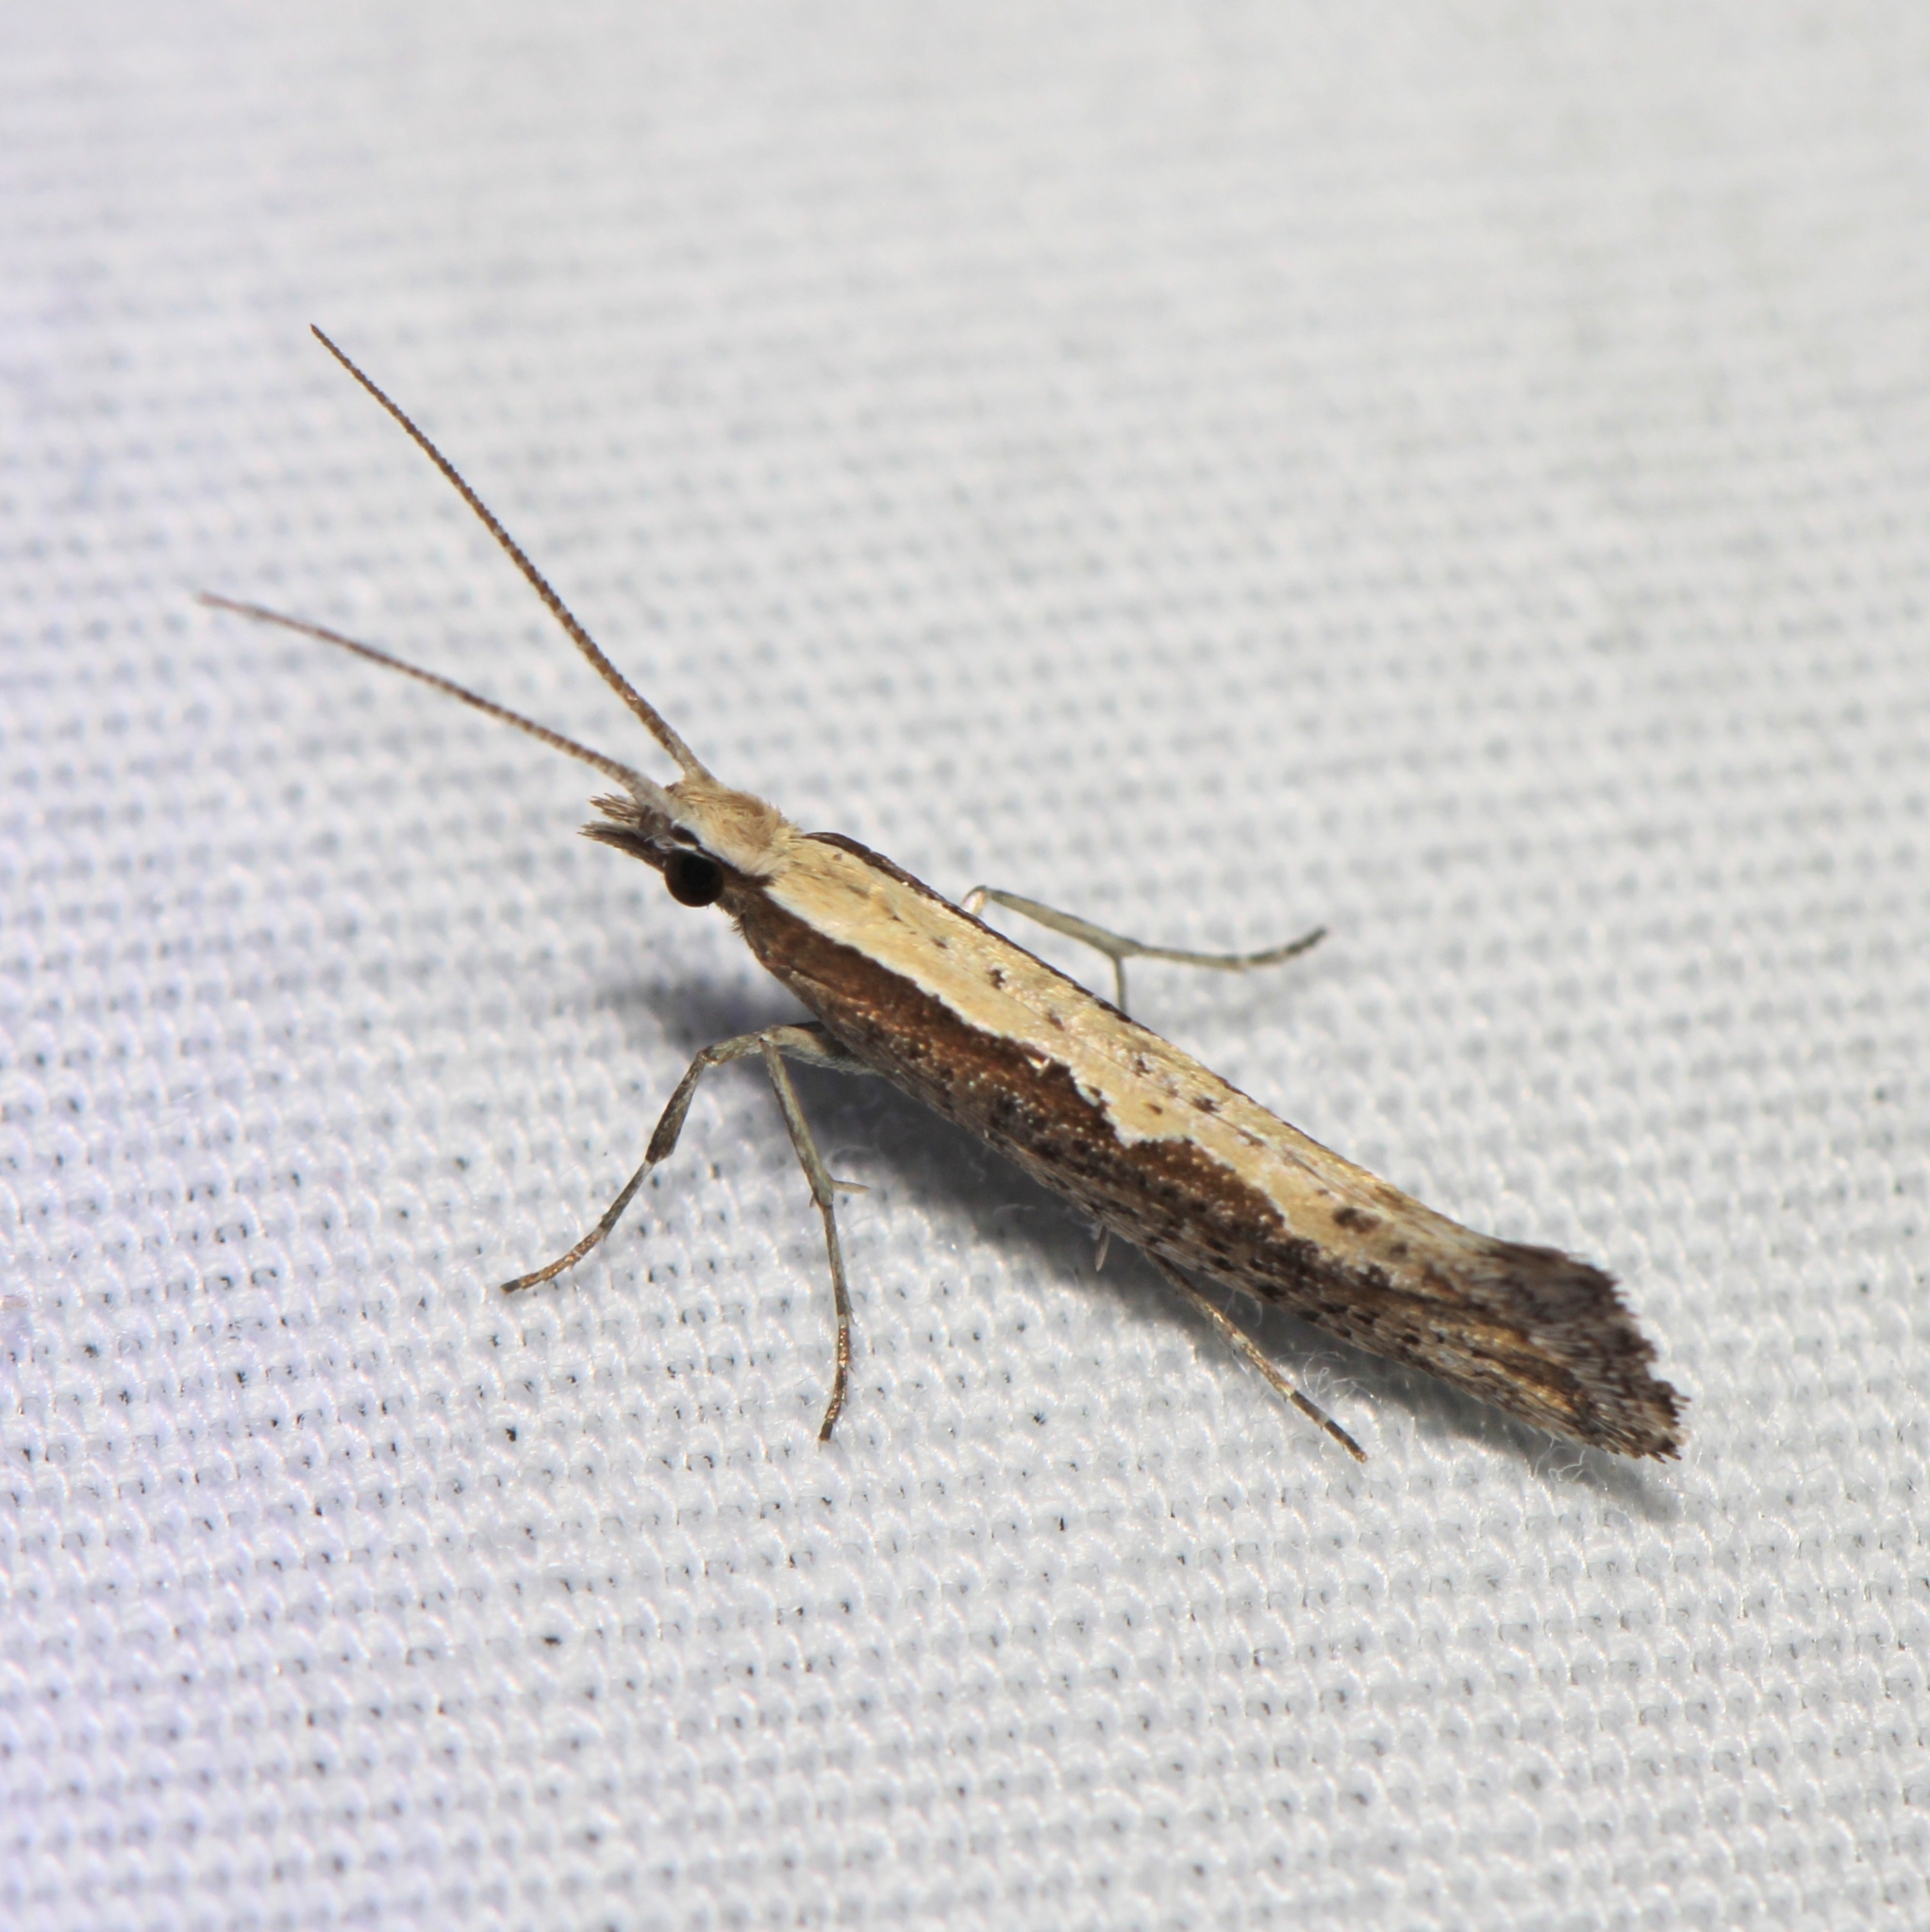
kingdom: Animalia
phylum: Arthropoda
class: Insecta
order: Lepidoptera
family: Plutellidae
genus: Plutella
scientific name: Plutella xylostella
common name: Diamond-back moth
